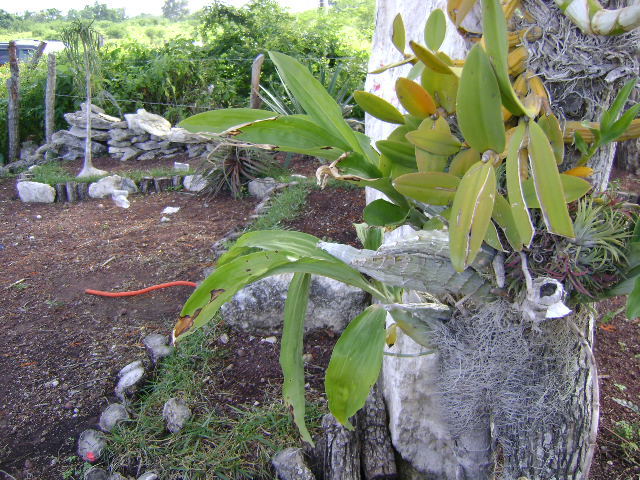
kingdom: Plantae
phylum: Tracheophyta
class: Liliopsida
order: Asparagales
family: Orchidaceae
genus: Catasetum
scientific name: Catasetum integerrimum
